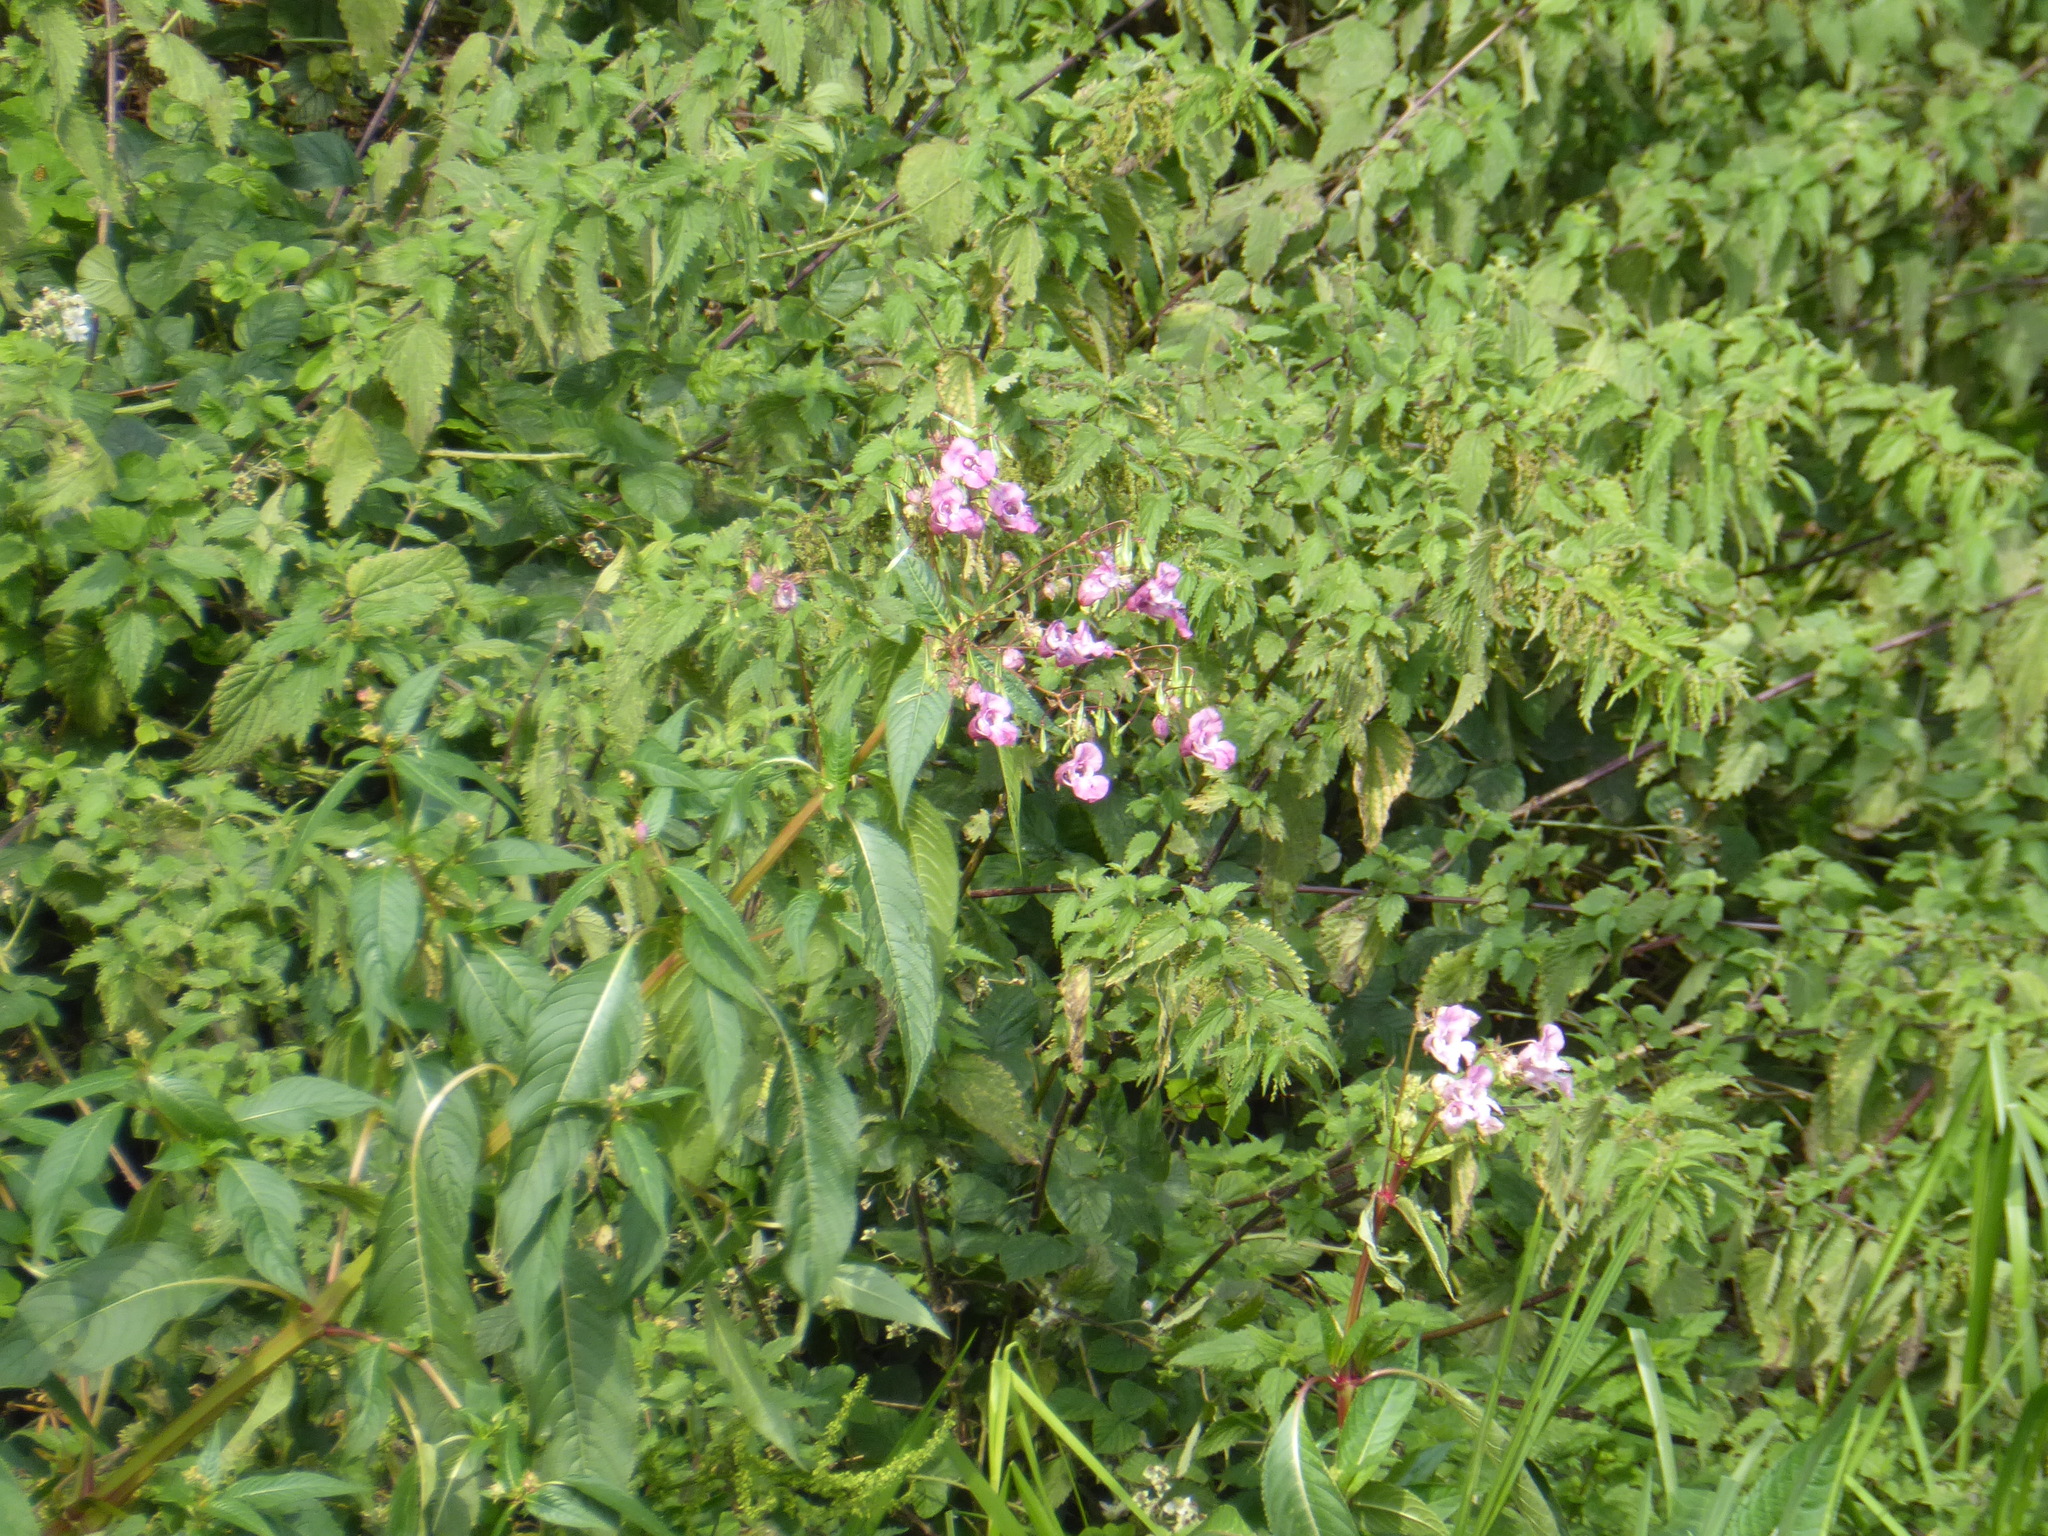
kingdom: Plantae
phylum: Tracheophyta
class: Magnoliopsida
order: Ericales
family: Balsaminaceae
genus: Impatiens
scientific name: Impatiens glandulifera
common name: Himalayan balsam
